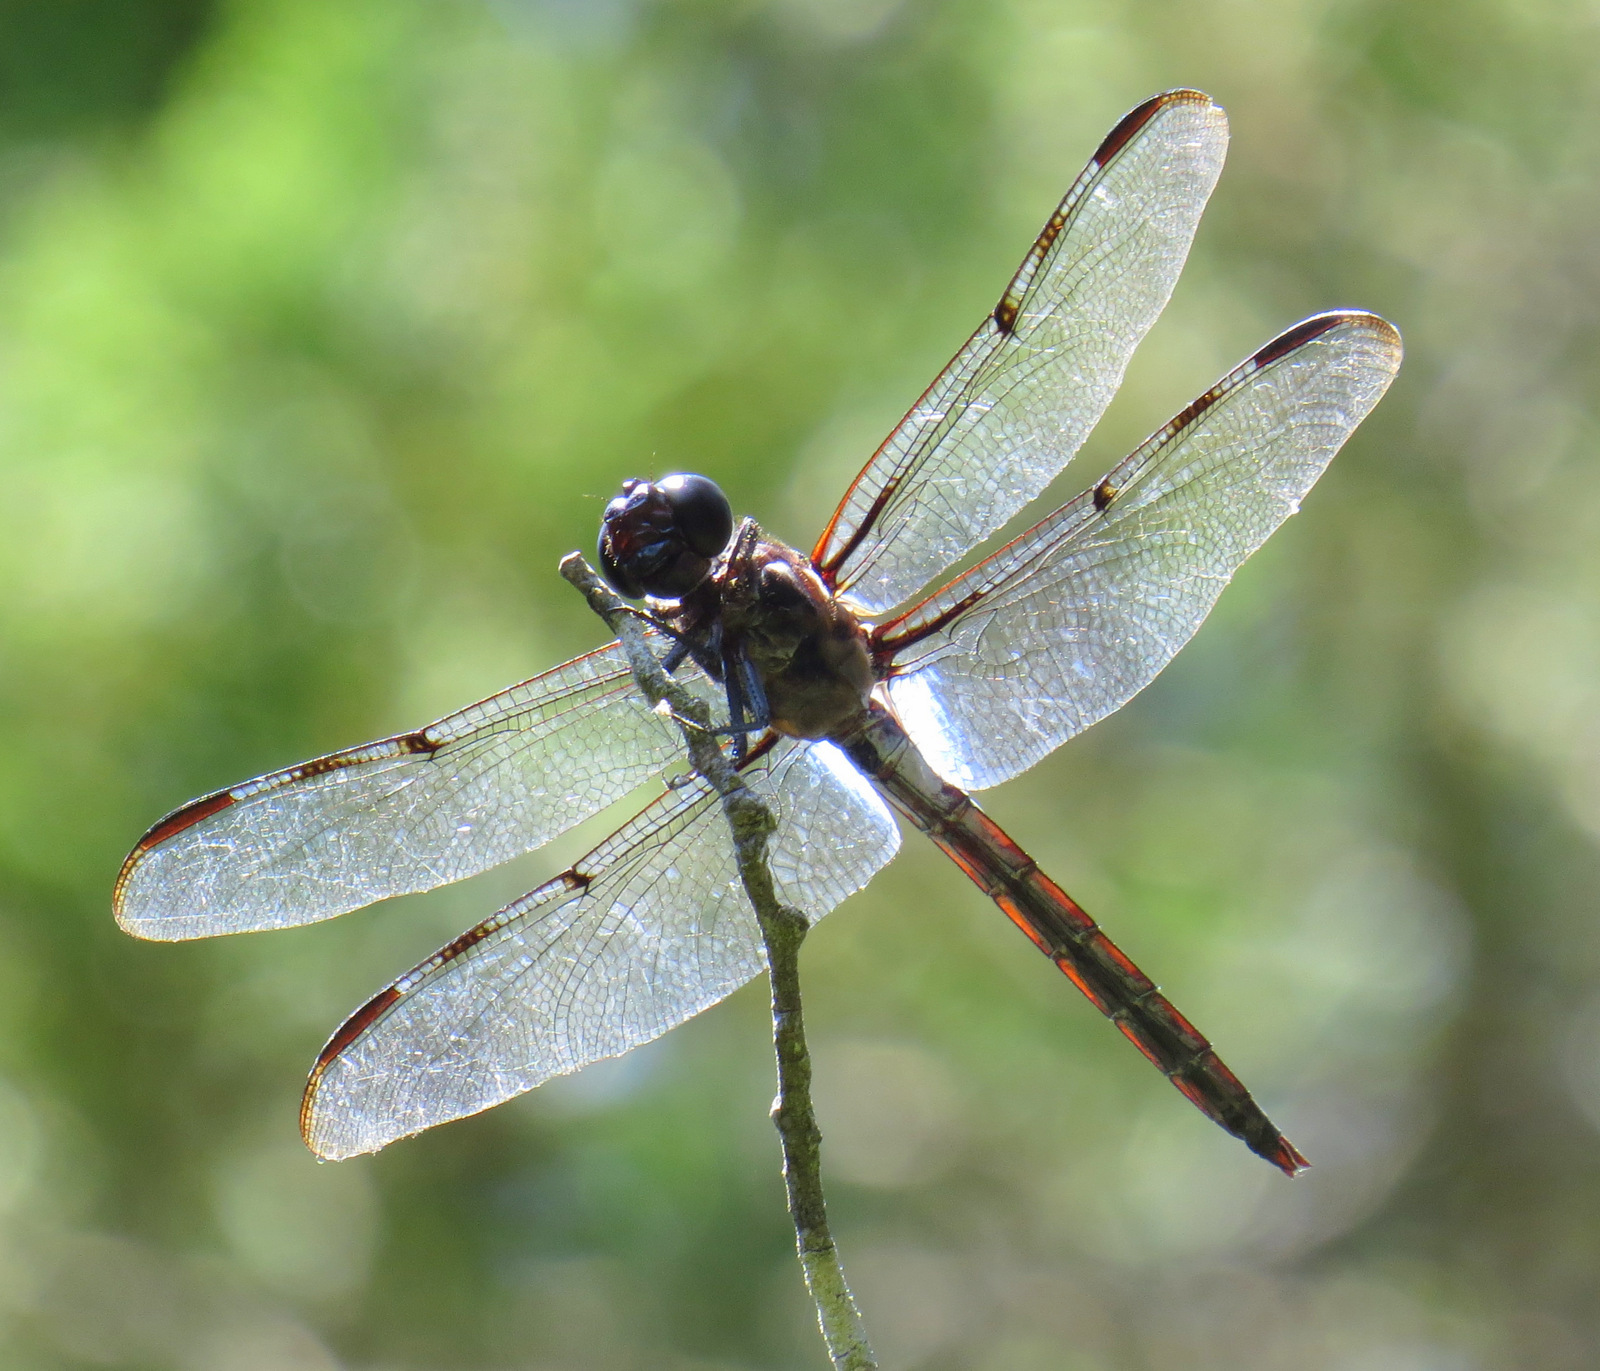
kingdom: Animalia
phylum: Arthropoda
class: Insecta
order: Odonata
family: Libellulidae
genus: Libellula
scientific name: Libellula axilena
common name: Bar-winged skimmer
